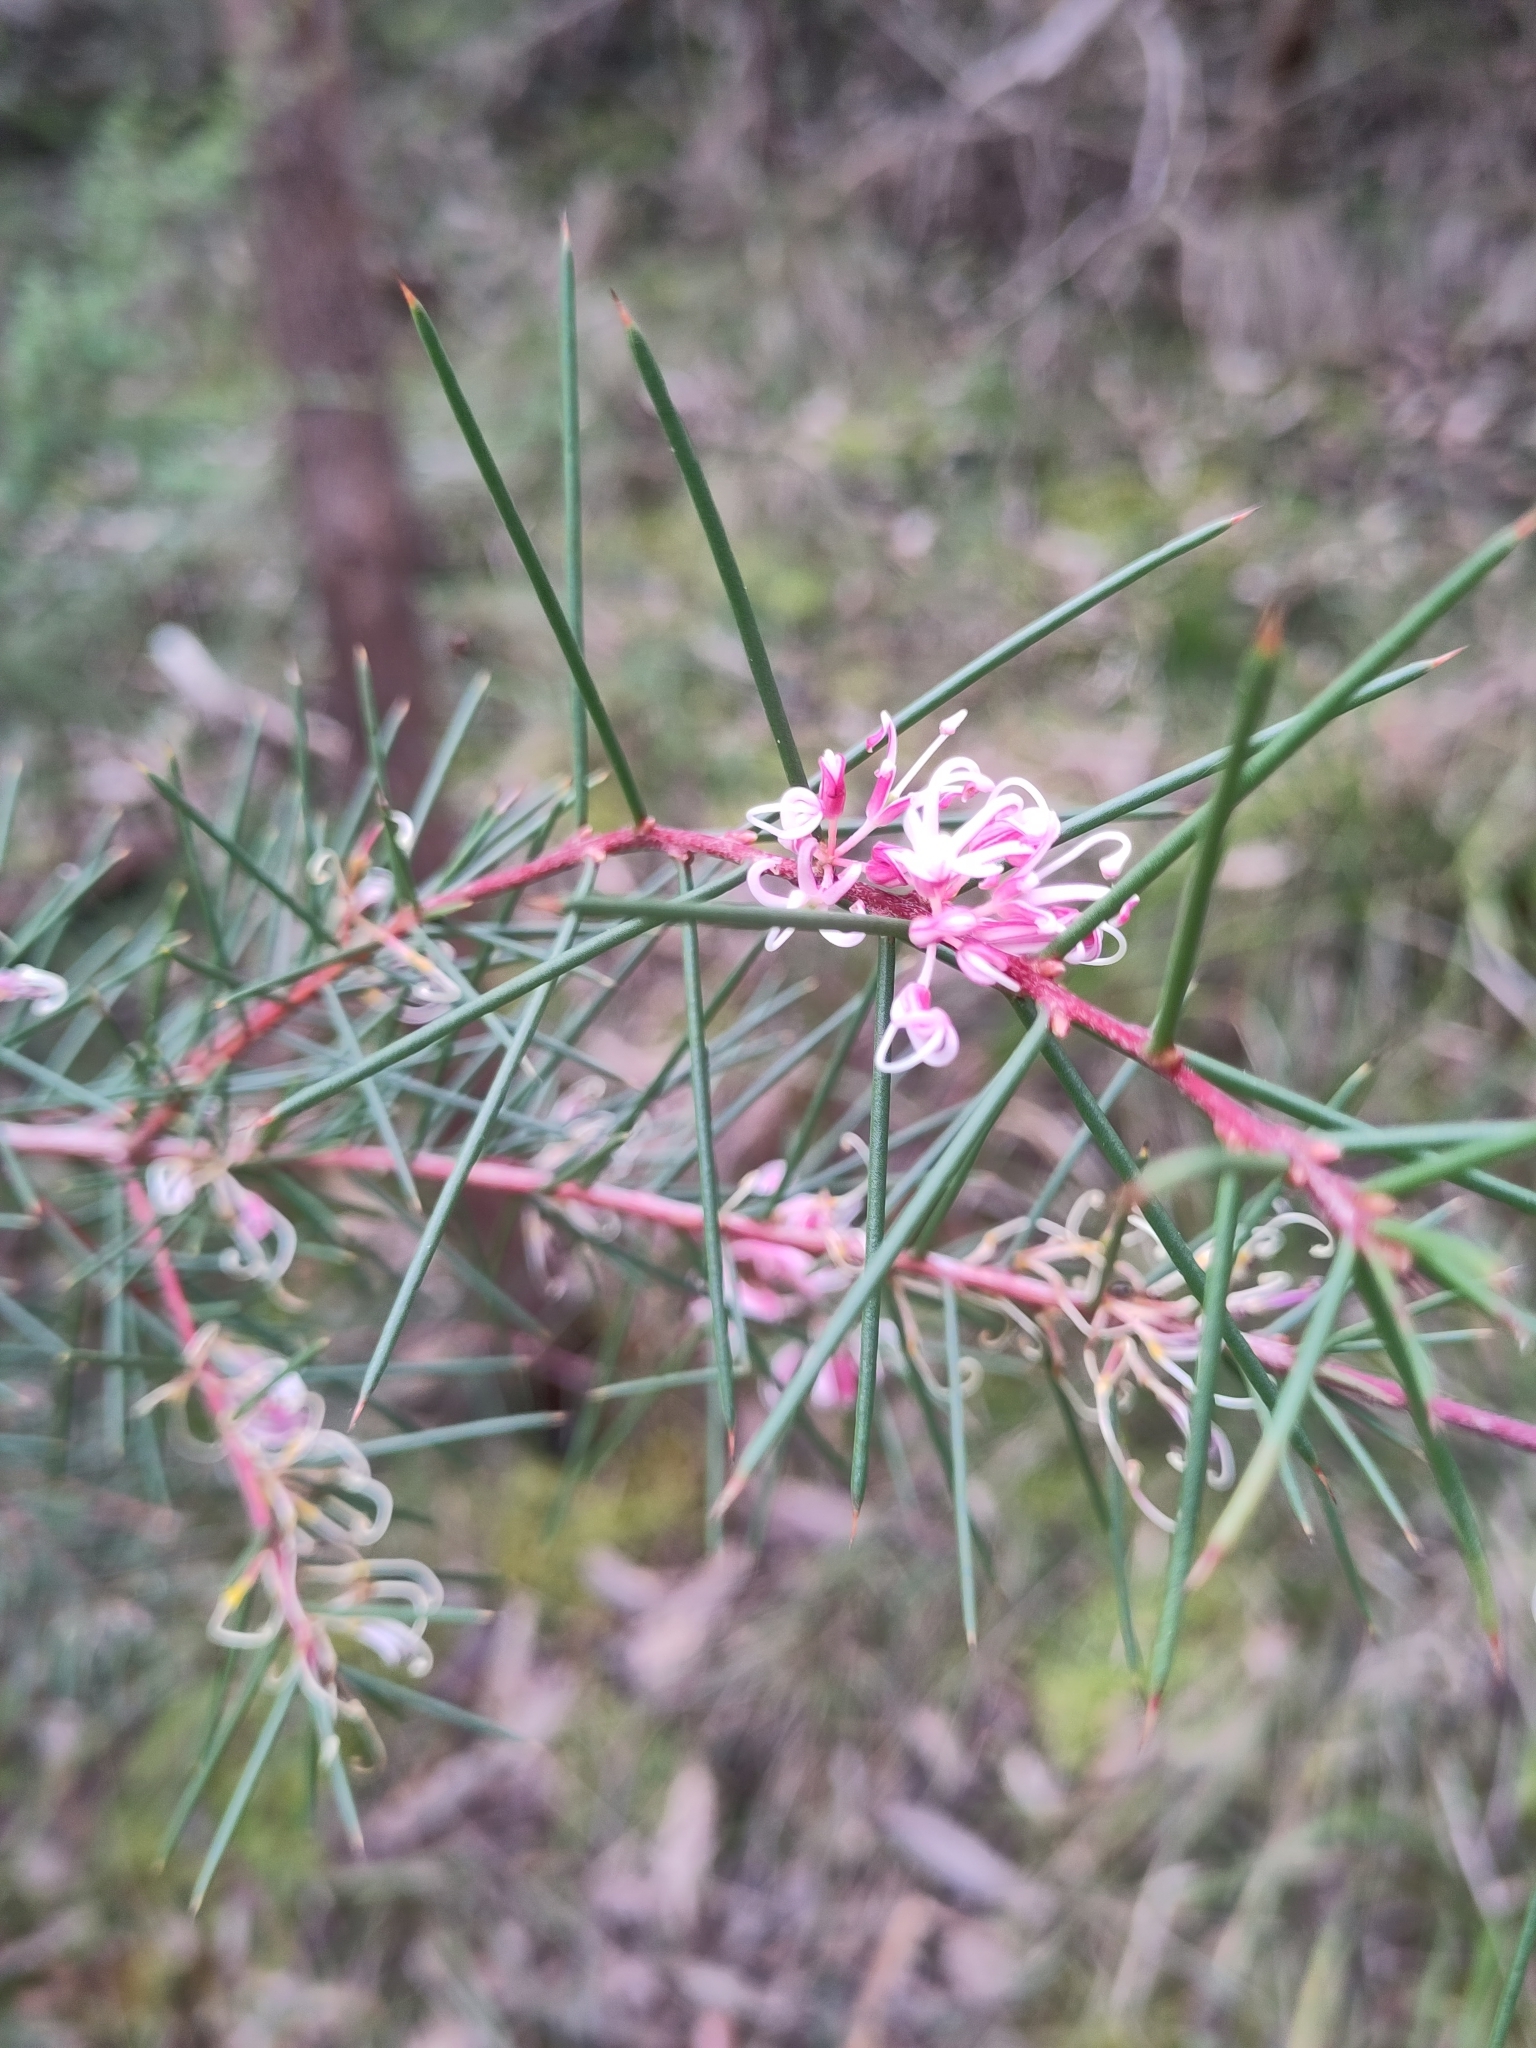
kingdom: Plantae
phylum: Tracheophyta
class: Magnoliopsida
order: Proteales
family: Proteaceae
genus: Hakea
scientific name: Hakea decurrens
